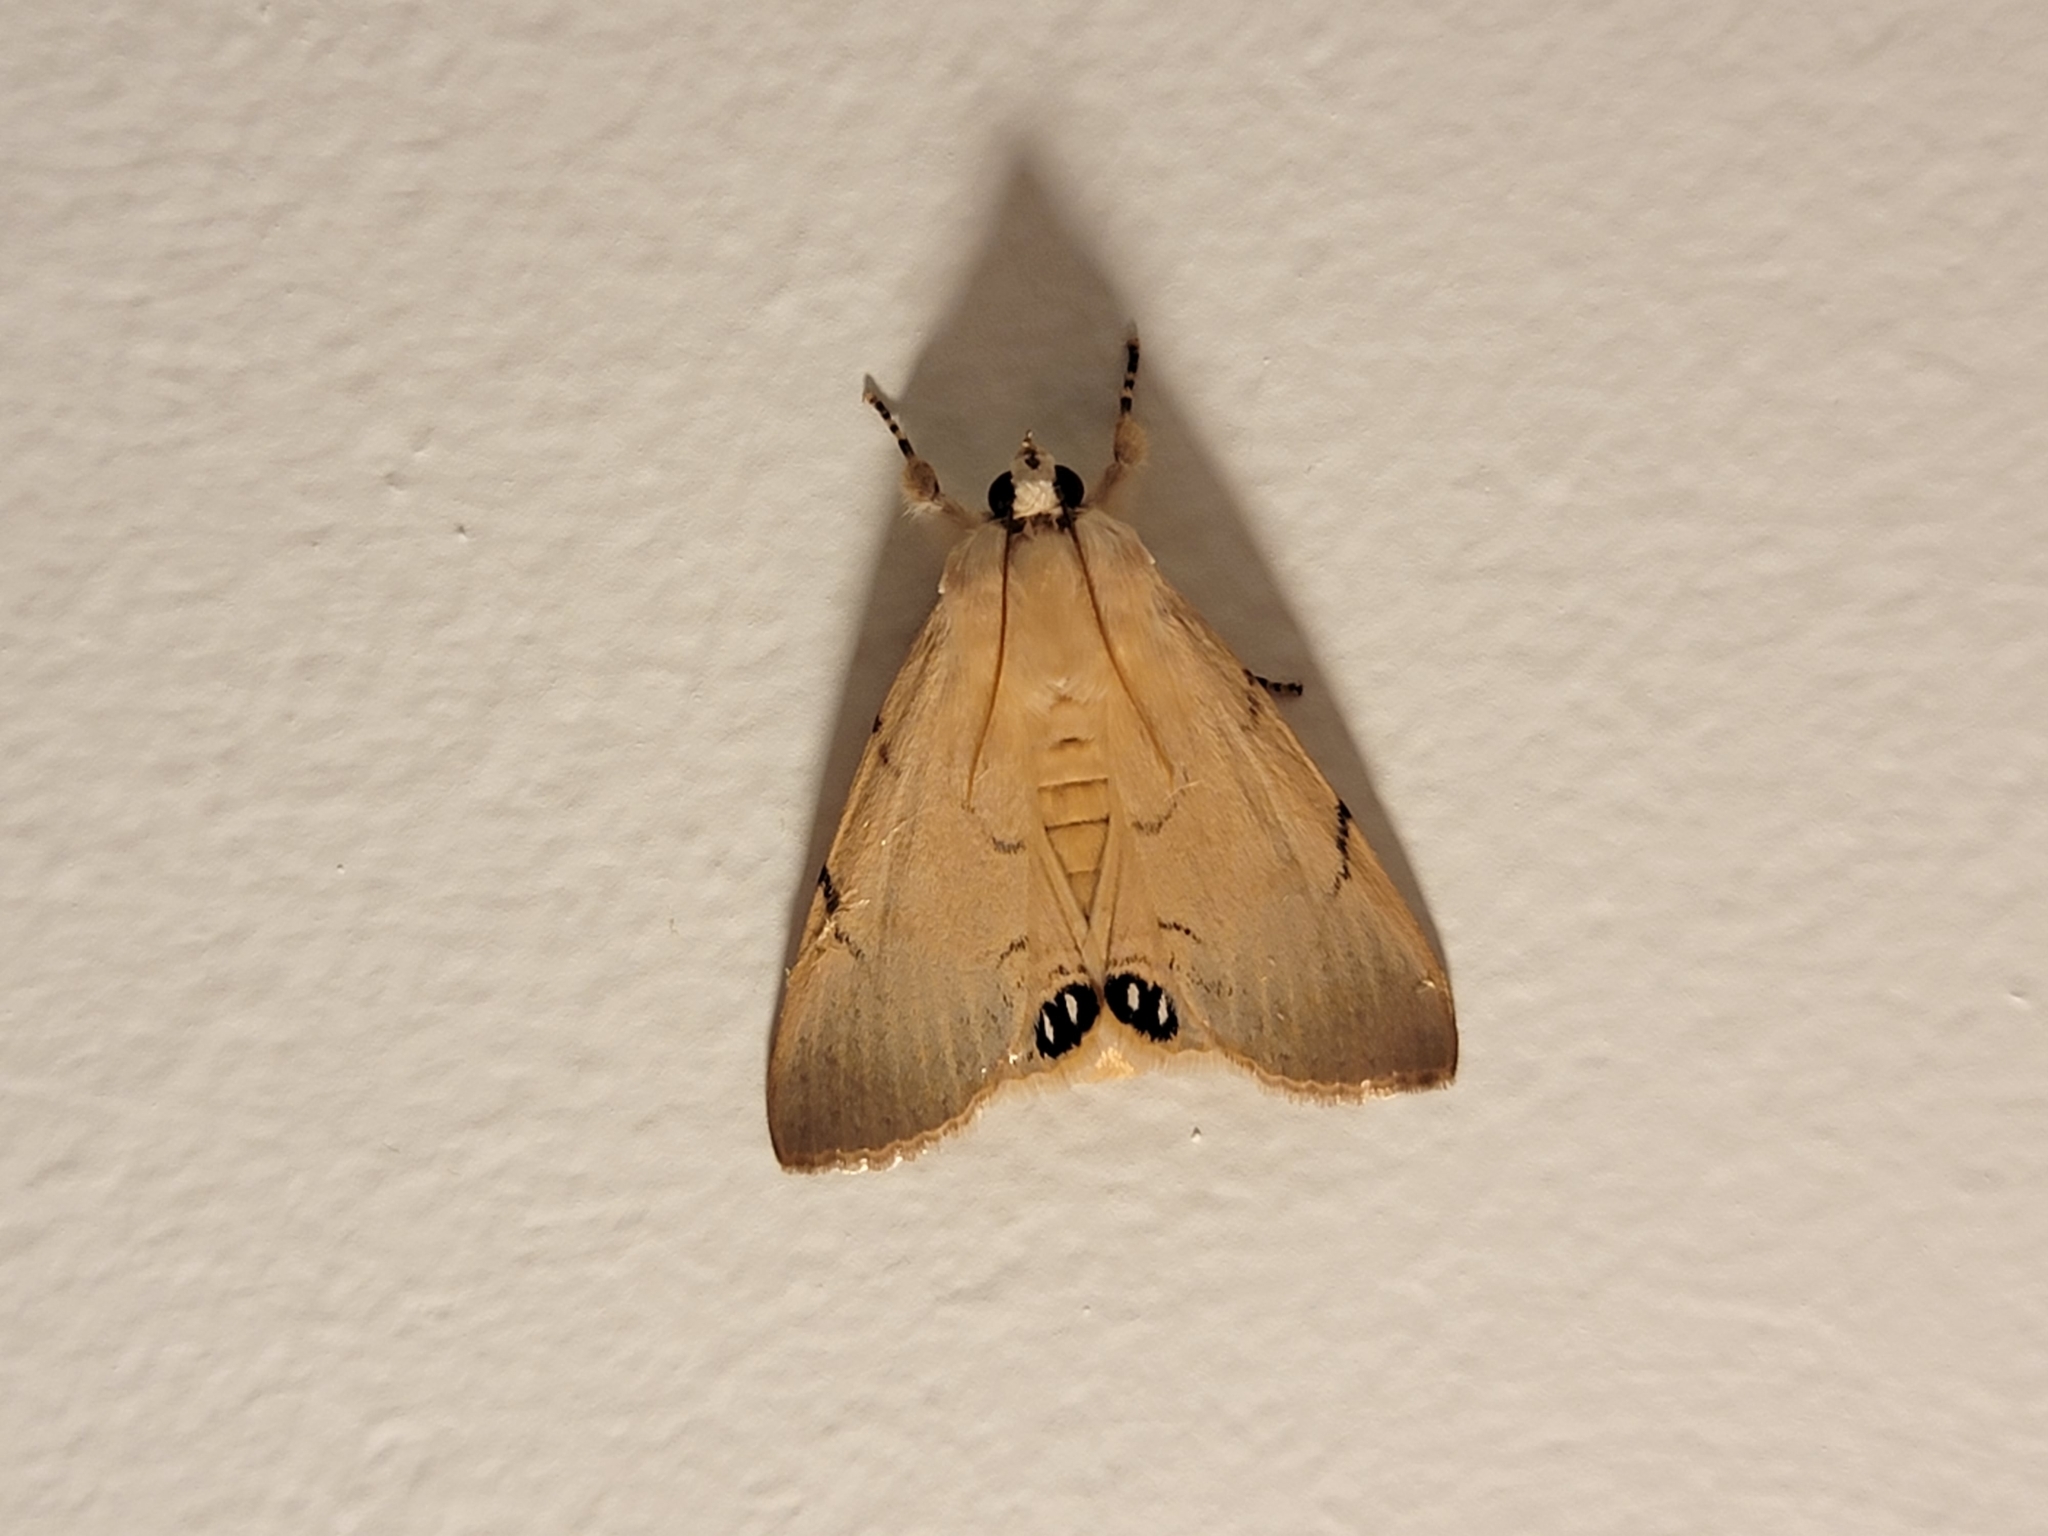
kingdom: Animalia
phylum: Arthropoda
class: Insecta
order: Lepidoptera
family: Erebidae
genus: Litoprosopus
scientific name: Litoprosopus coachella
